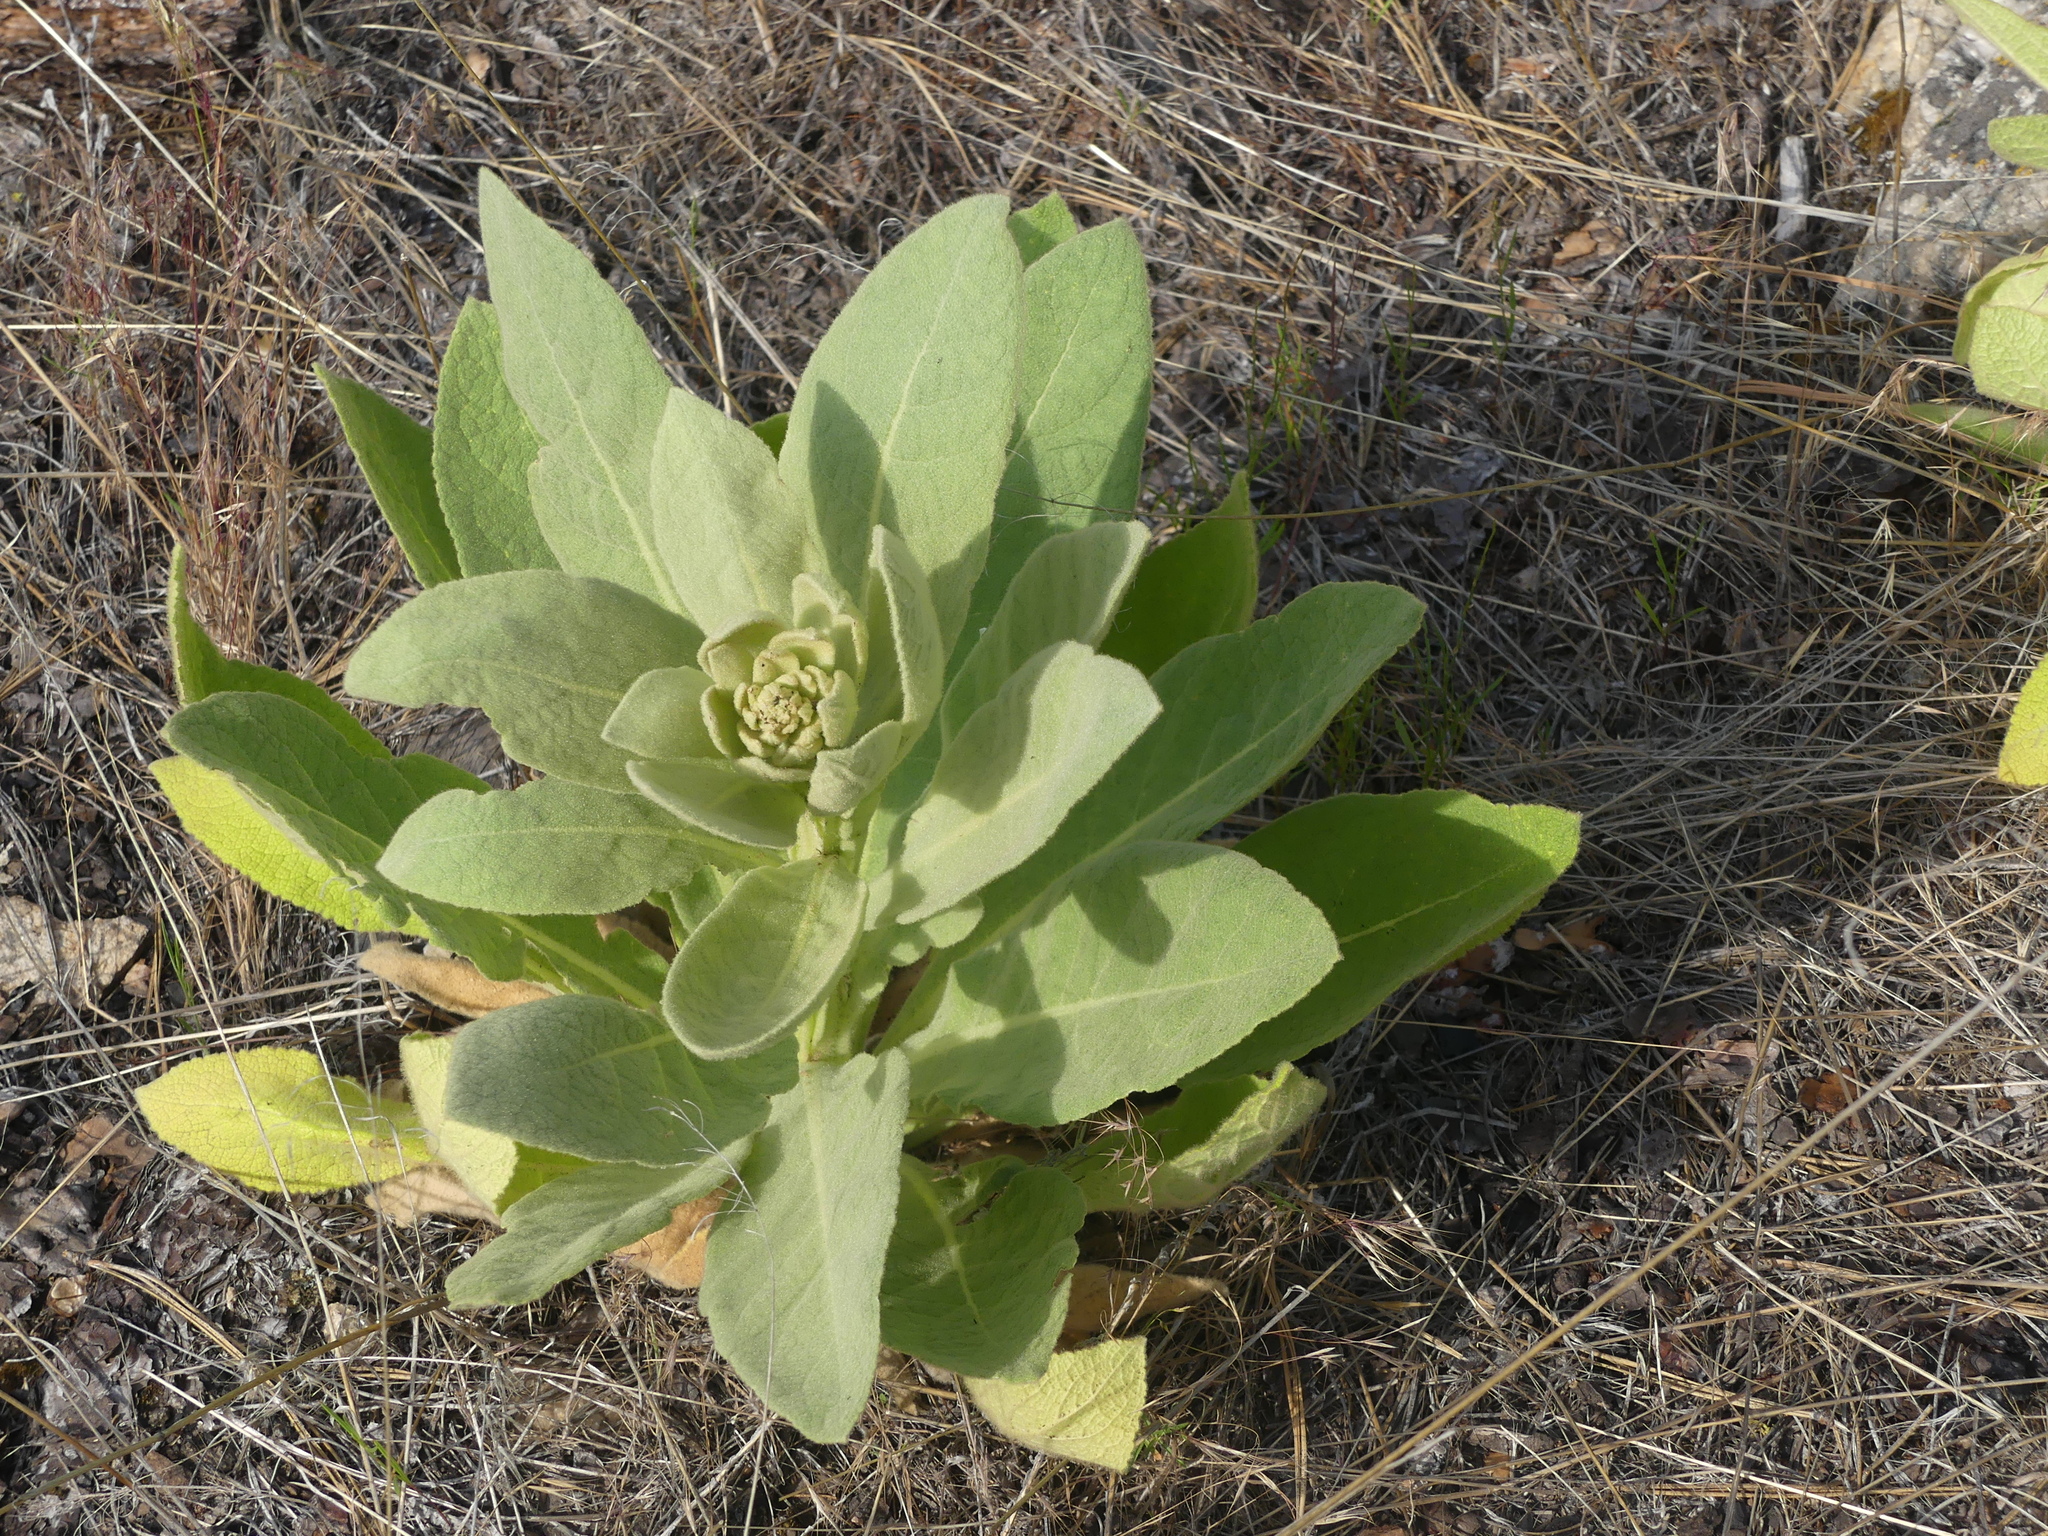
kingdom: Plantae
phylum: Tracheophyta
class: Magnoliopsida
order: Lamiales
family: Scrophulariaceae
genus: Verbascum
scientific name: Verbascum thapsus
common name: Common mullein
